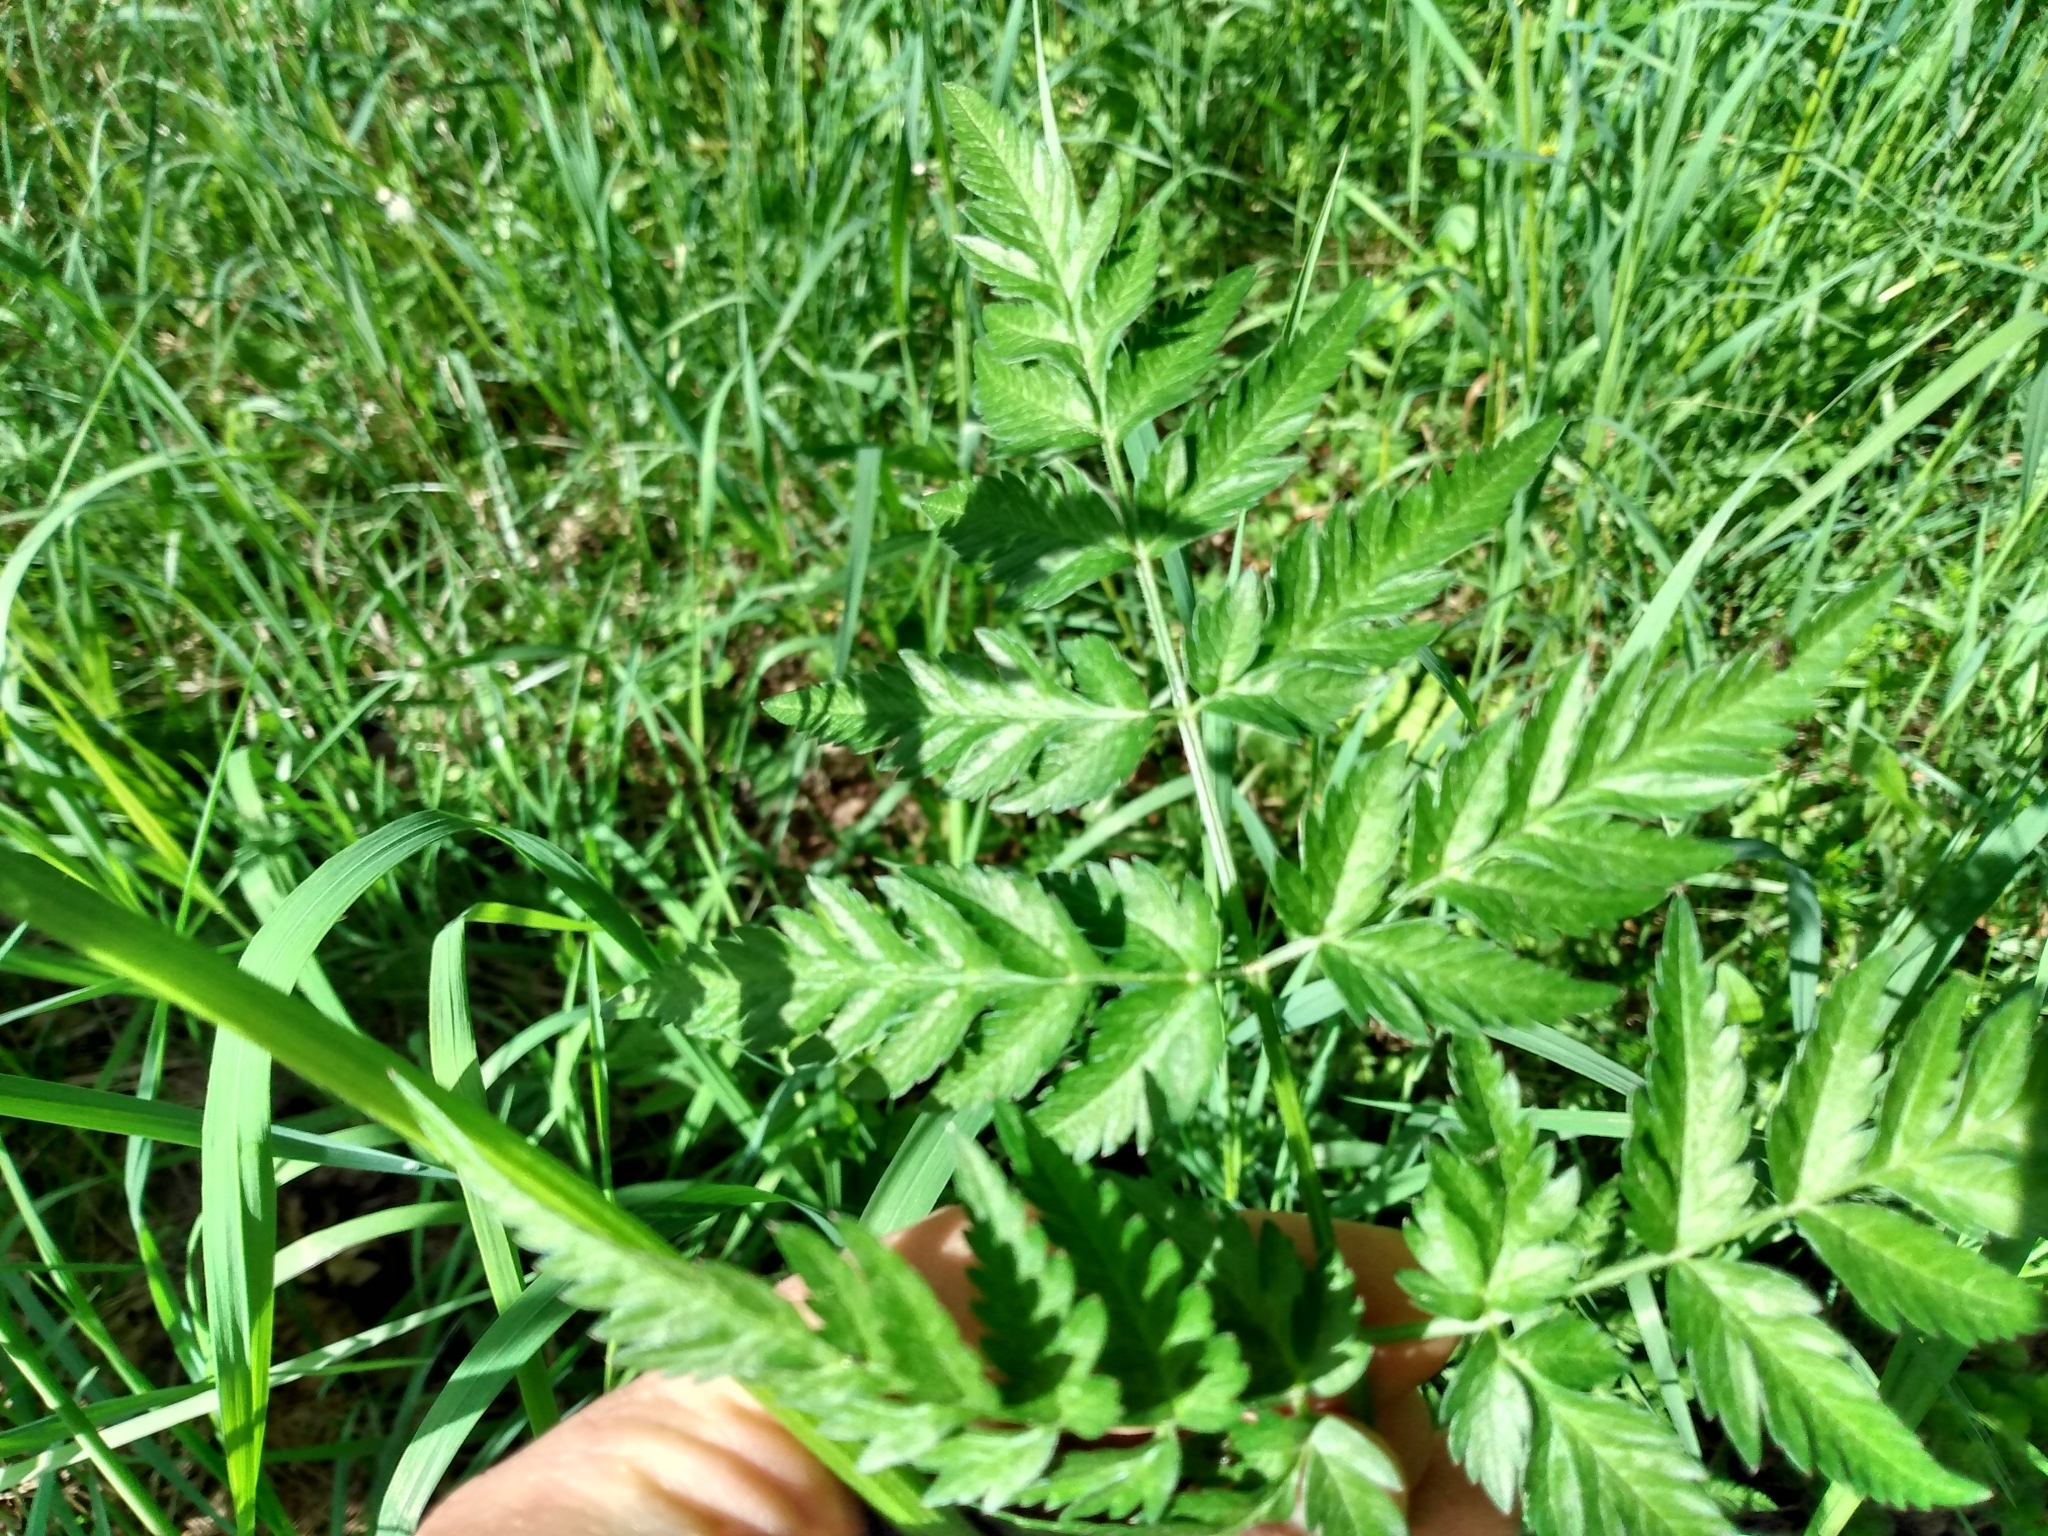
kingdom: Plantae
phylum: Tracheophyta
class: Magnoliopsida
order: Apiales
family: Apiaceae
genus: Anthriscus
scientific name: Anthriscus sylvestris
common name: Cow parsley
